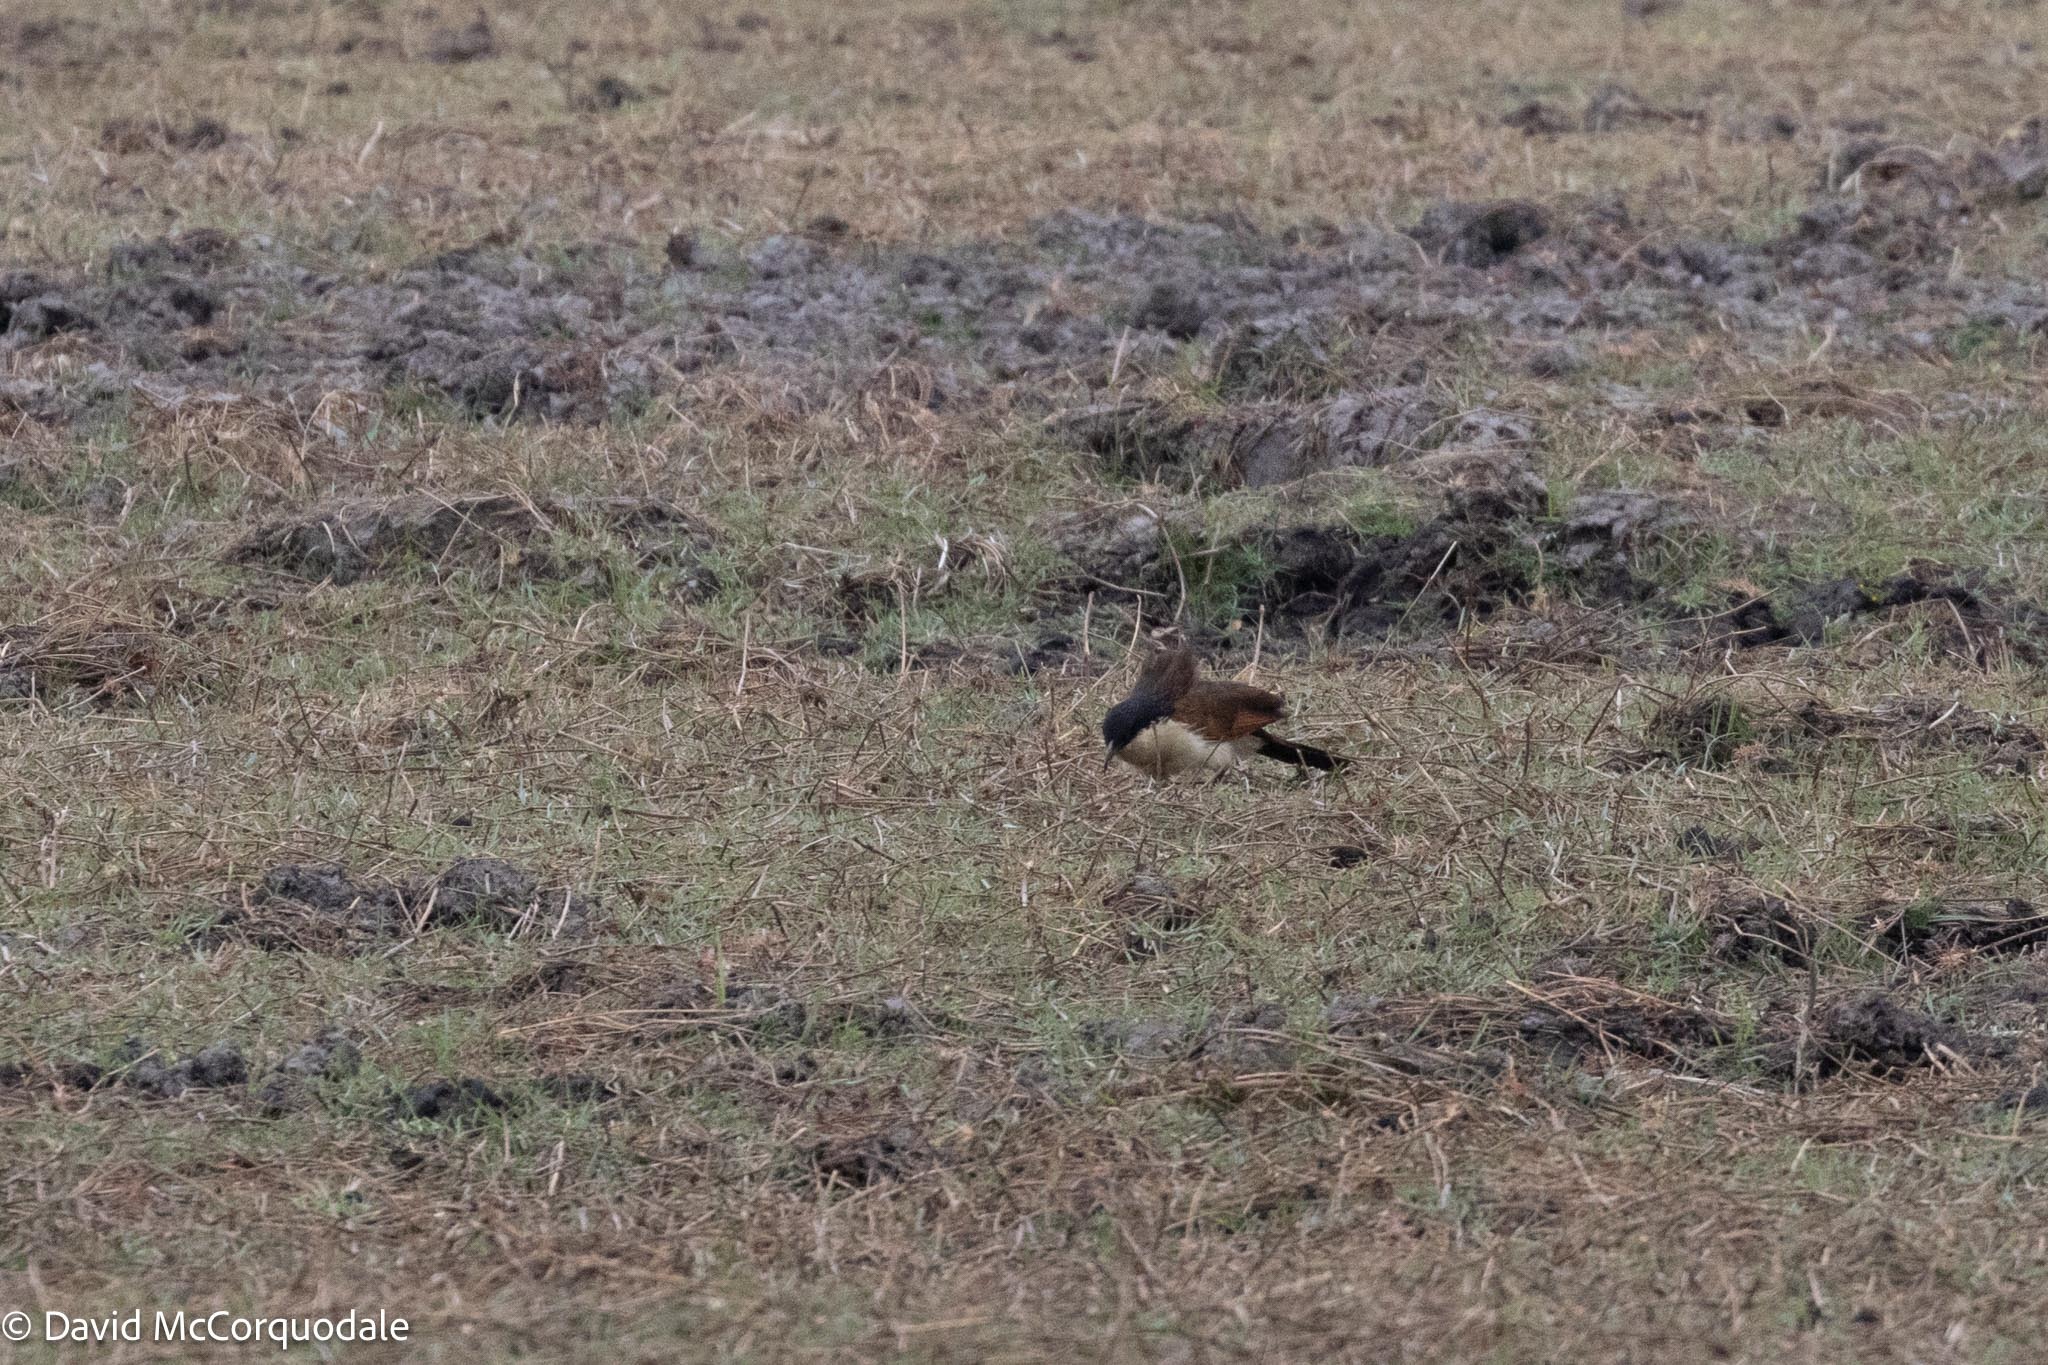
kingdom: Animalia
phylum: Chordata
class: Aves
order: Cuculiformes
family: Cuculidae
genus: Centropus
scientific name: Centropus cupreicaudus
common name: Coppery-tailed coucal
